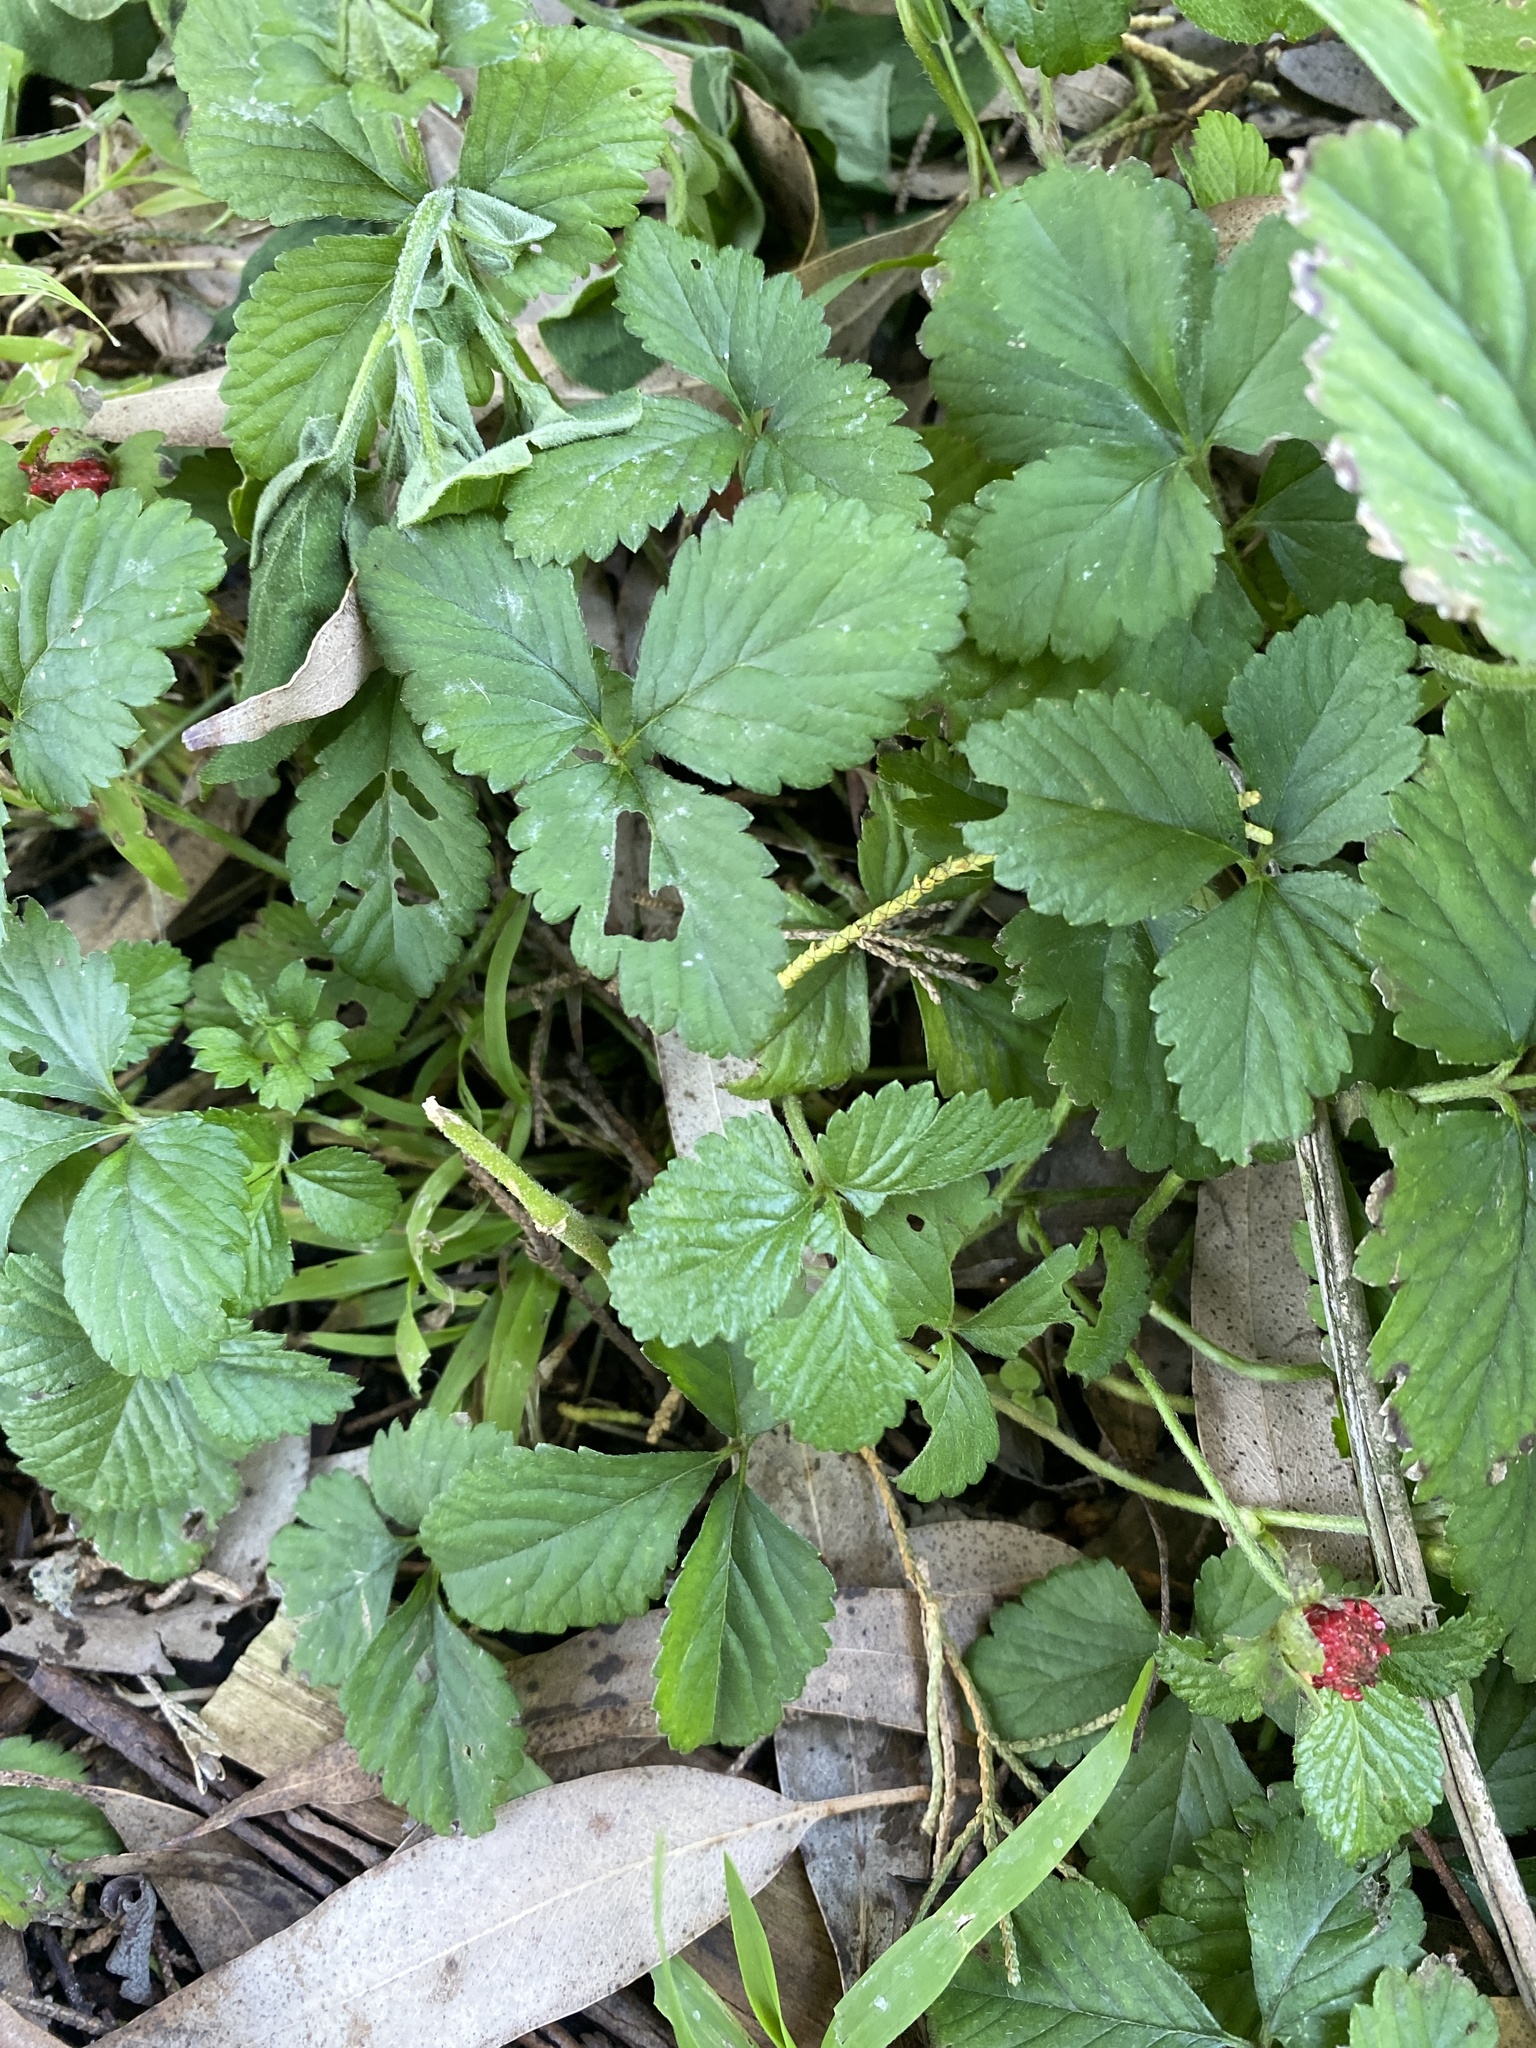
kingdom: Plantae
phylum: Tracheophyta
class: Magnoliopsida
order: Rosales
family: Rosaceae
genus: Potentilla
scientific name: Potentilla indica
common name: Yellow-flowered strawberry
